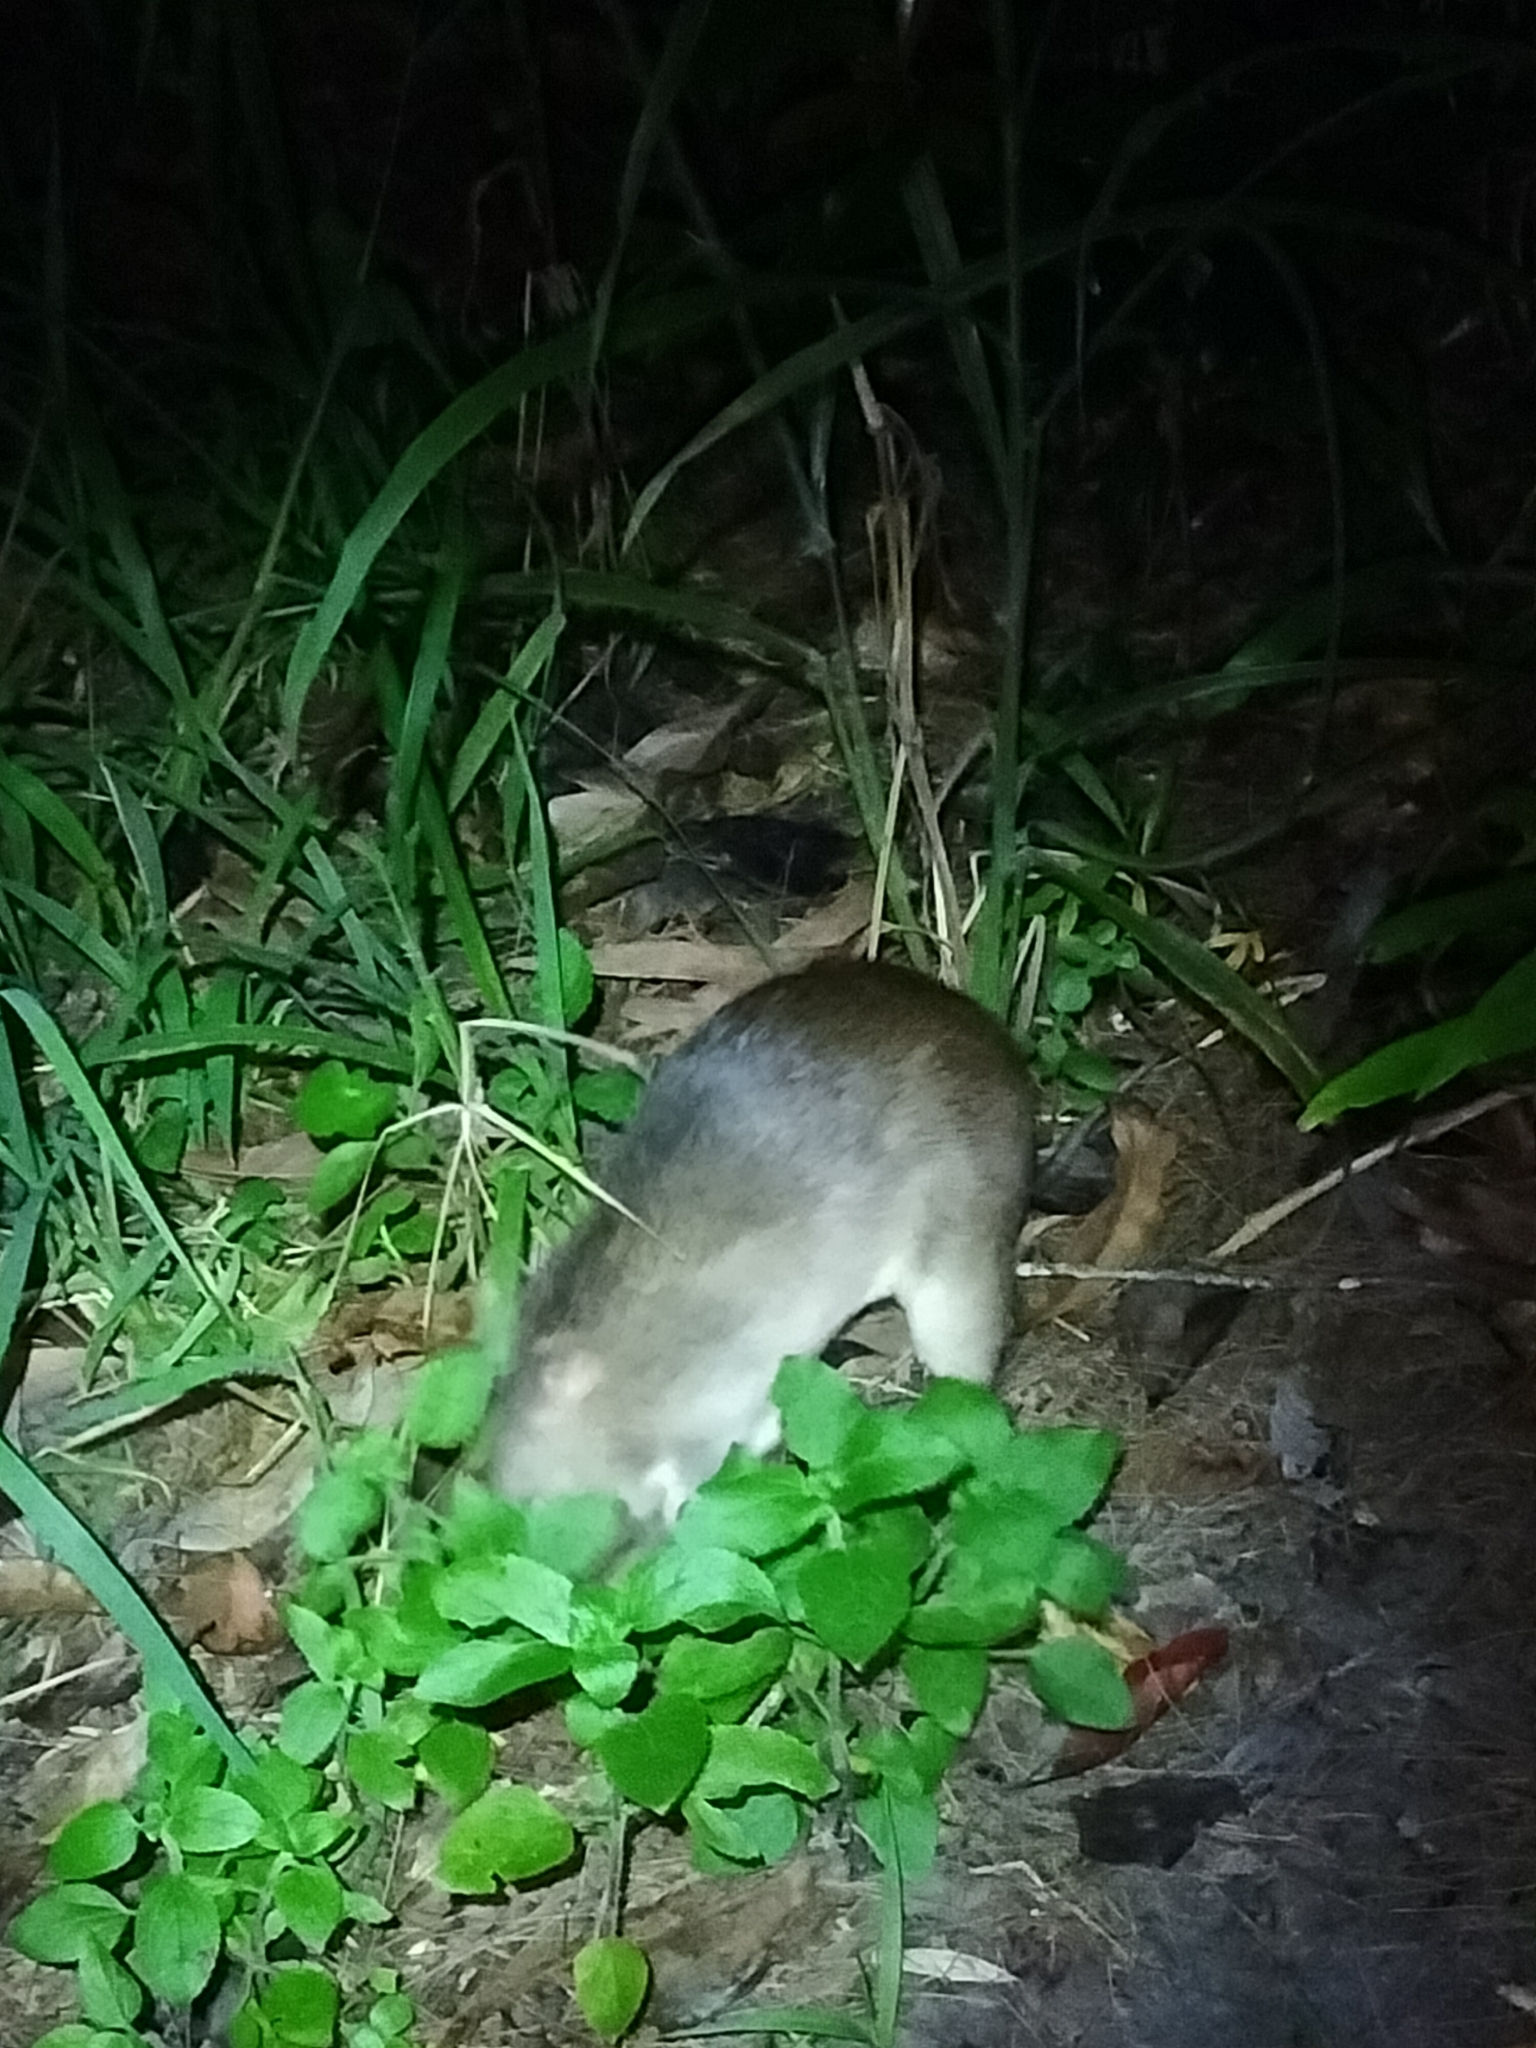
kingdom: Animalia
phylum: Chordata
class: Mammalia
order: Peramelemorphia
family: Peramelidae
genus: Perameles
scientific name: Perameles pallescens
